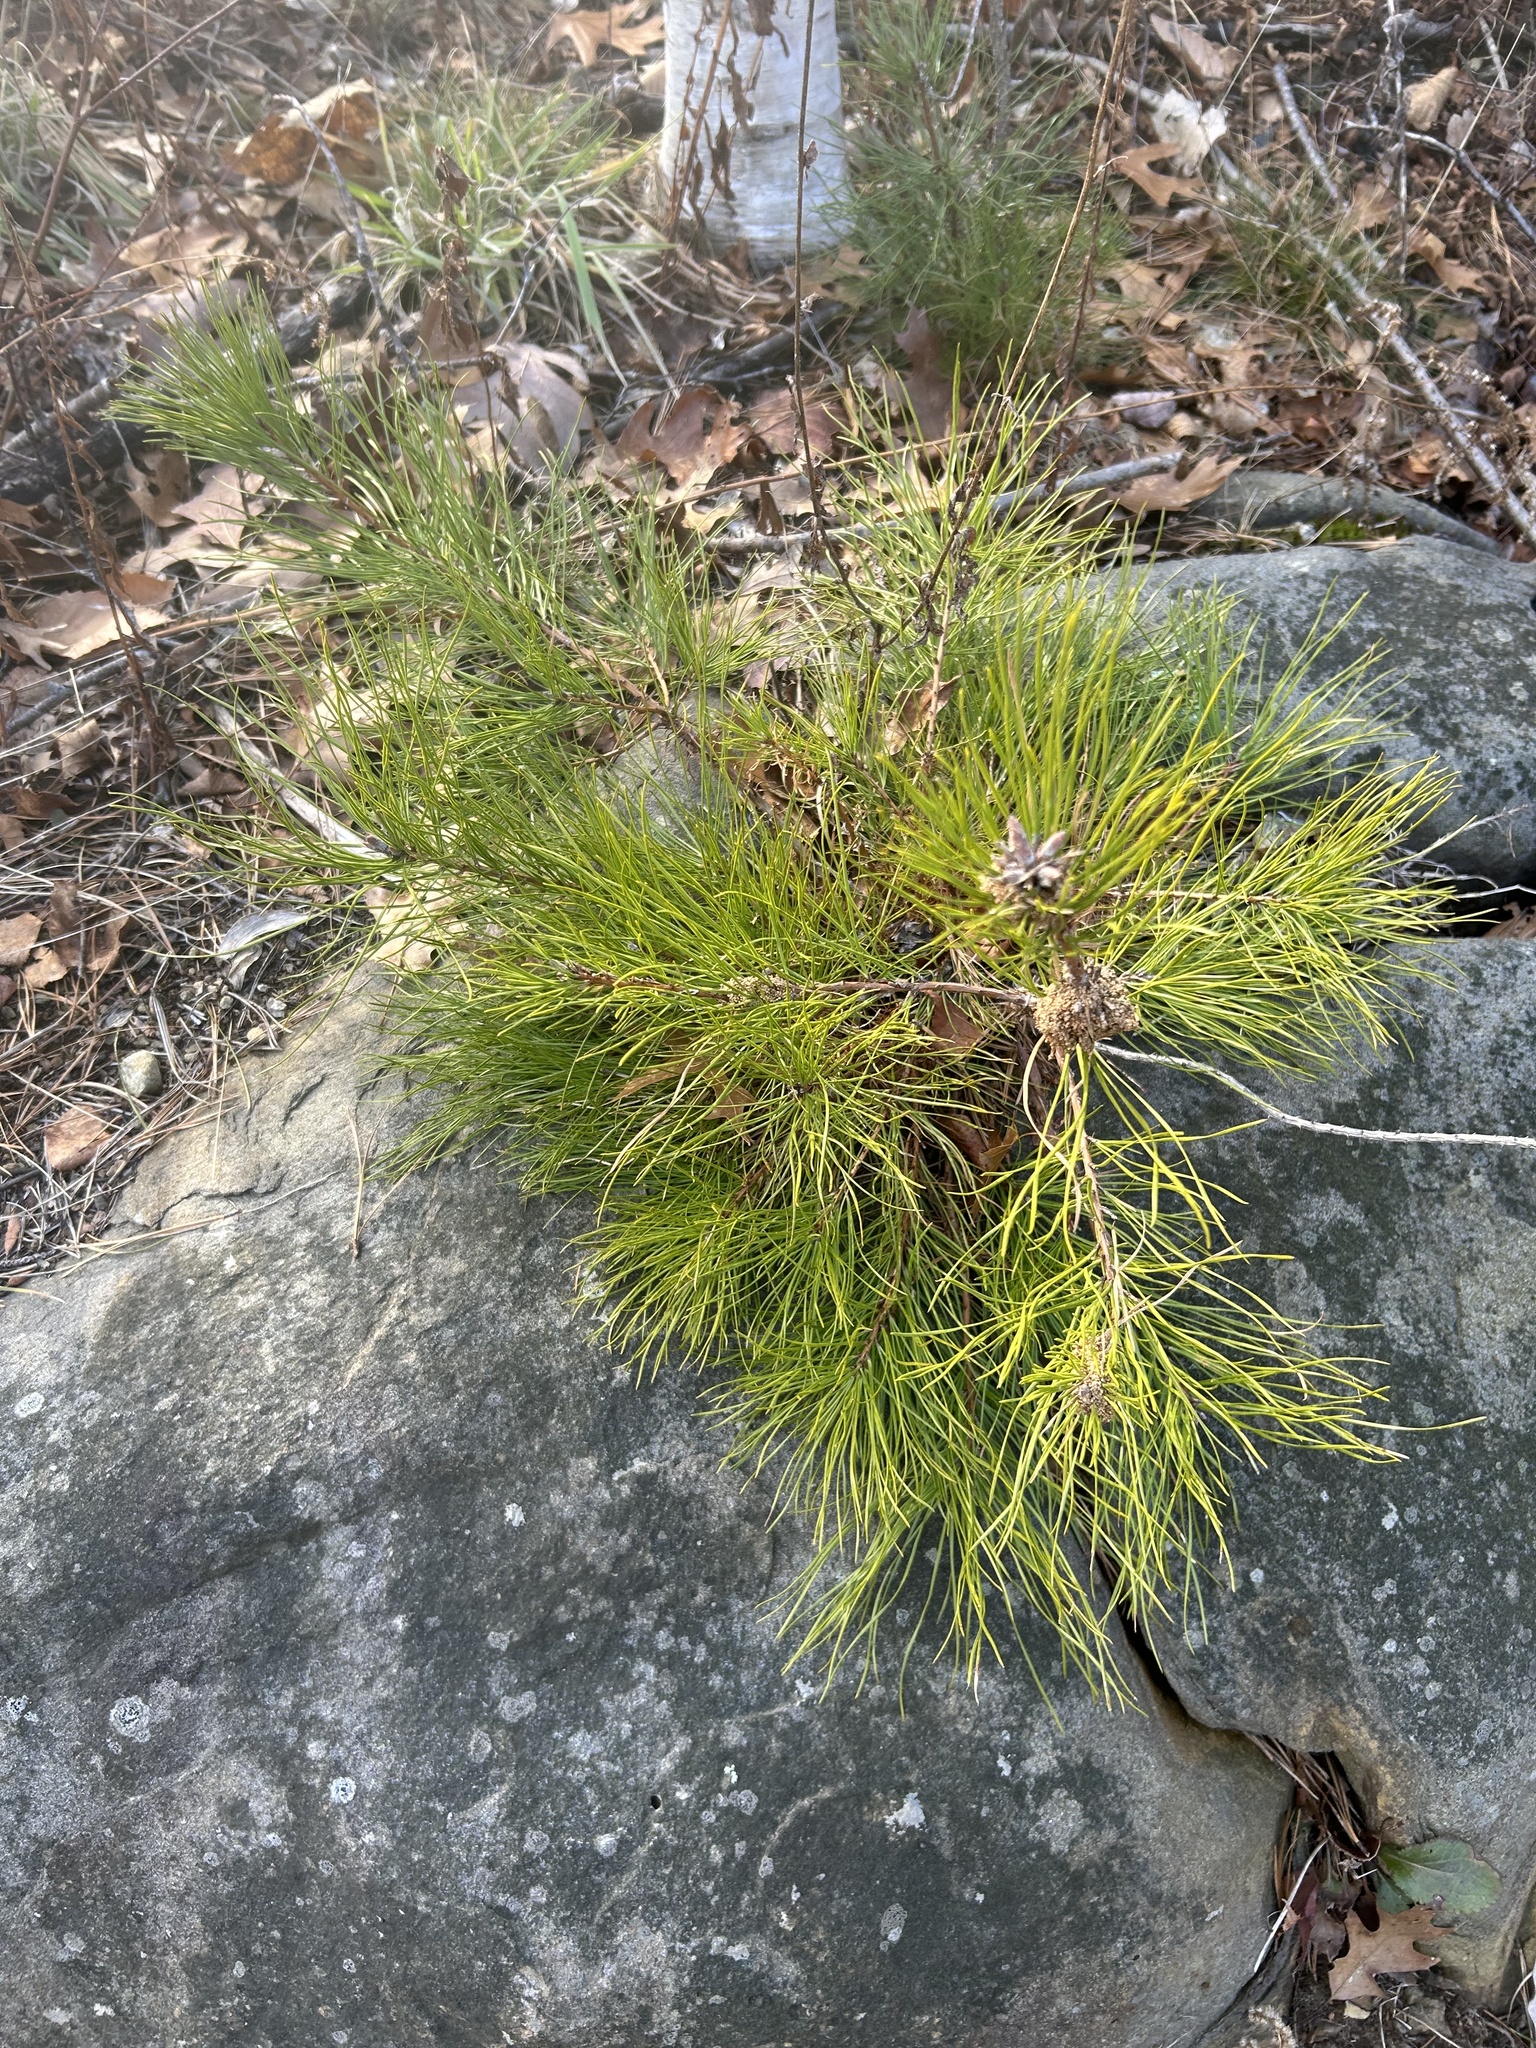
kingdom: Plantae
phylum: Tracheophyta
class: Pinopsida
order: Pinales
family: Pinaceae
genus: Pinus
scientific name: Pinus rigida
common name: Pitch pine
